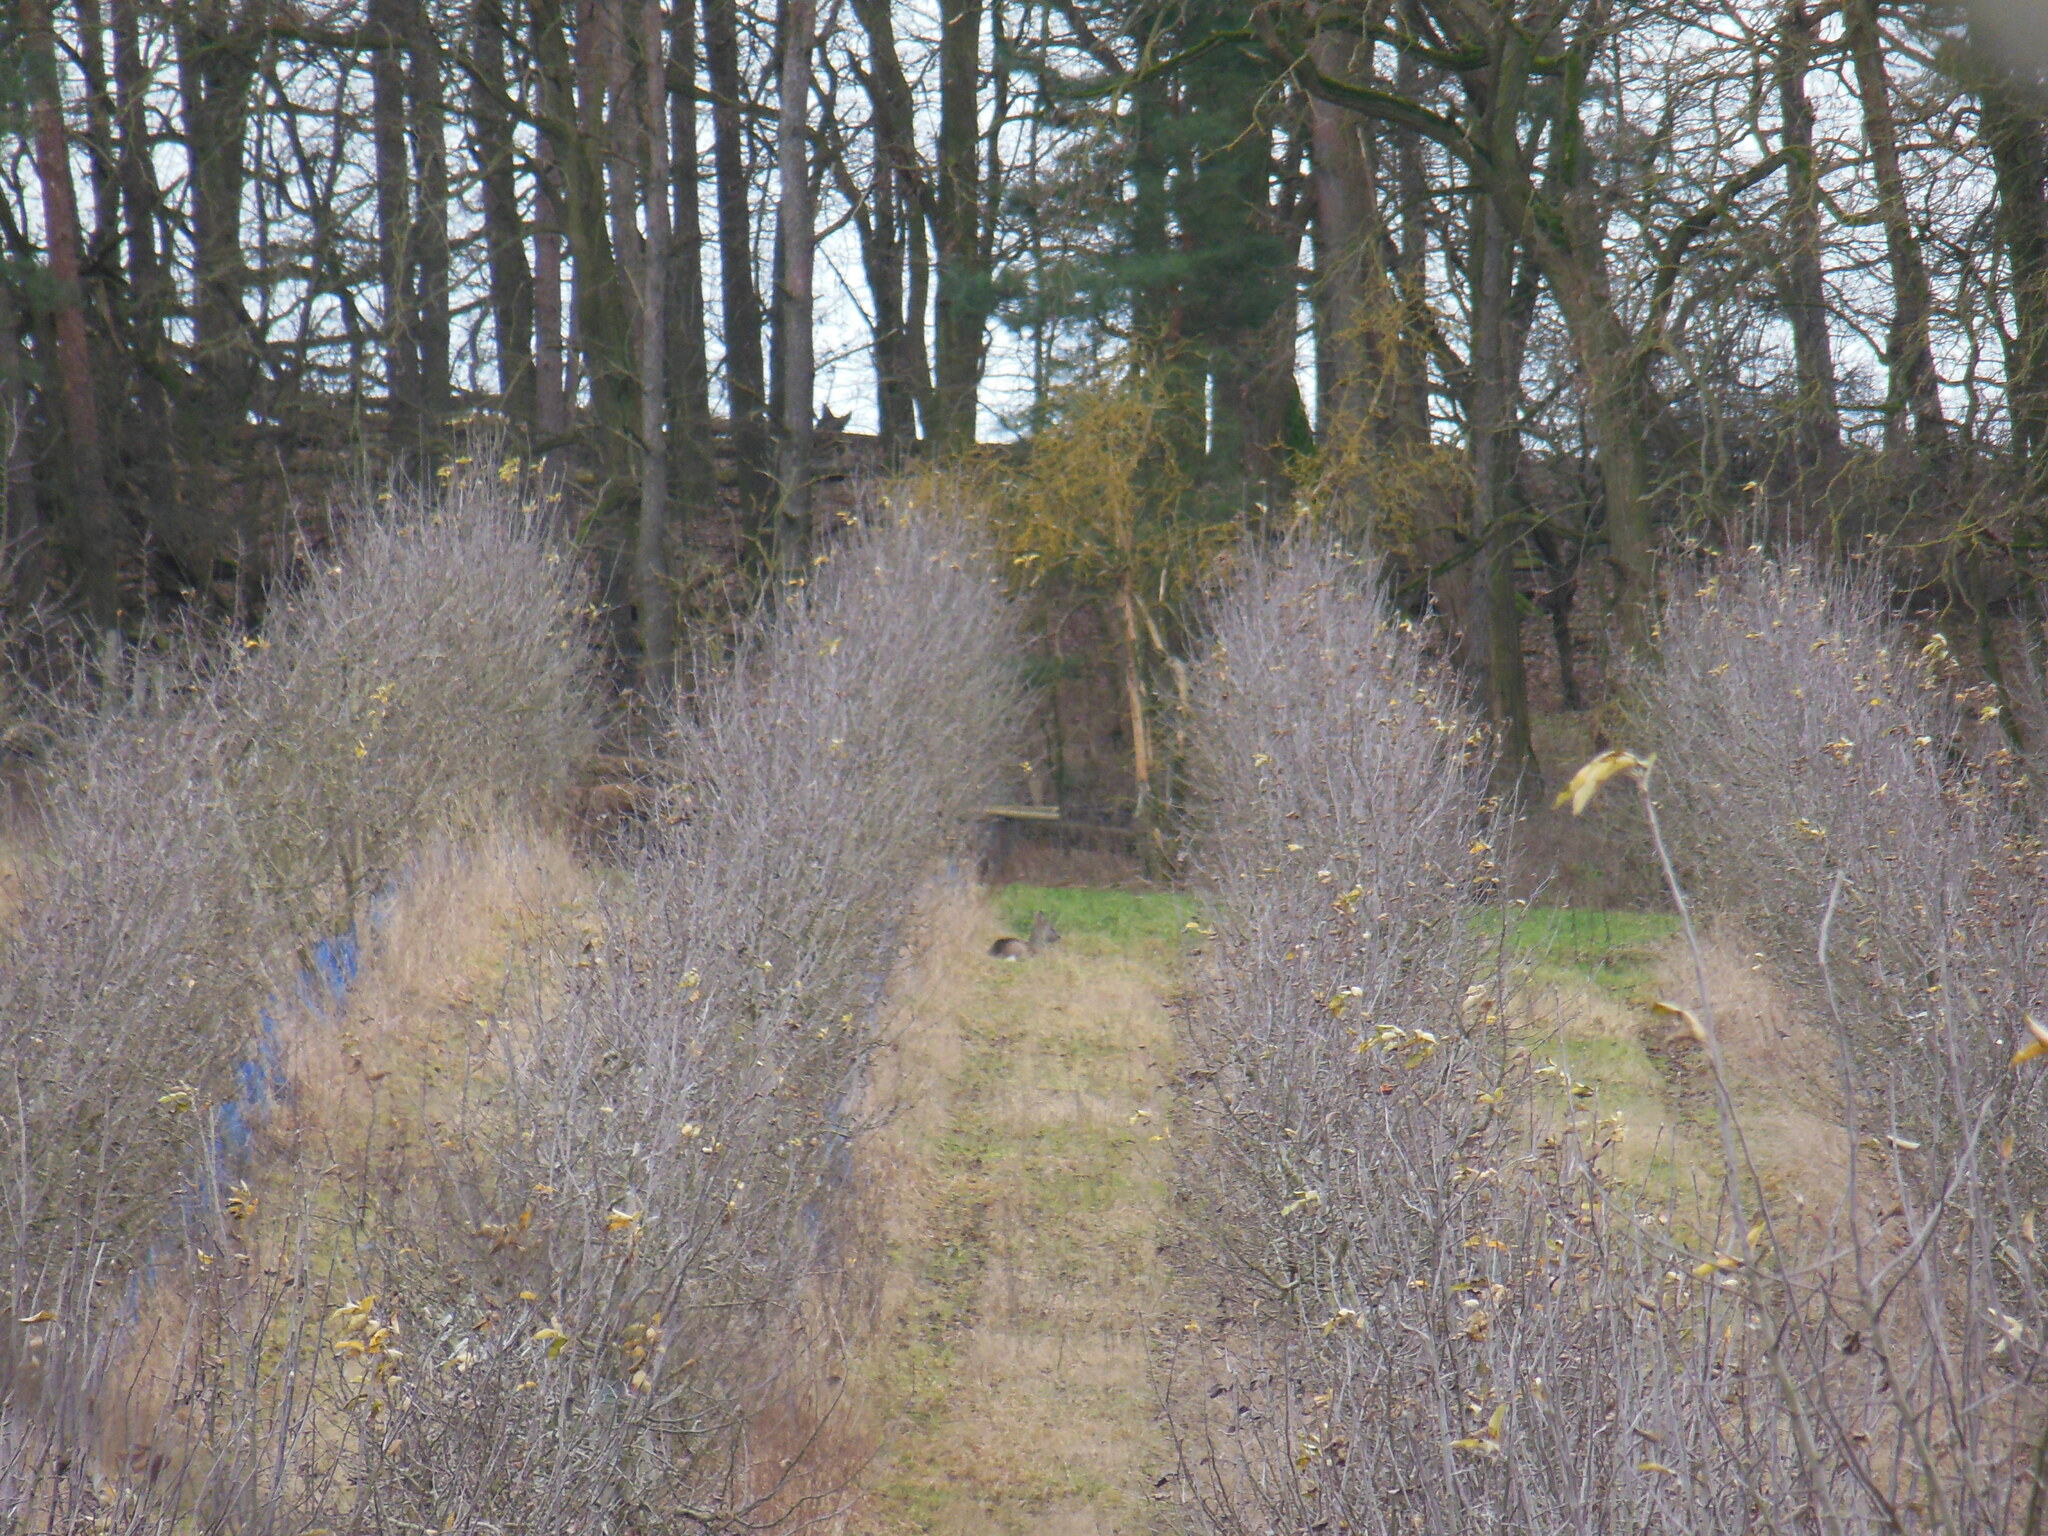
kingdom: Animalia
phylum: Chordata
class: Mammalia
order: Artiodactyla
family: Cervidae
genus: Capreolus
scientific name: Capreolus capreolus
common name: Western roe deer
